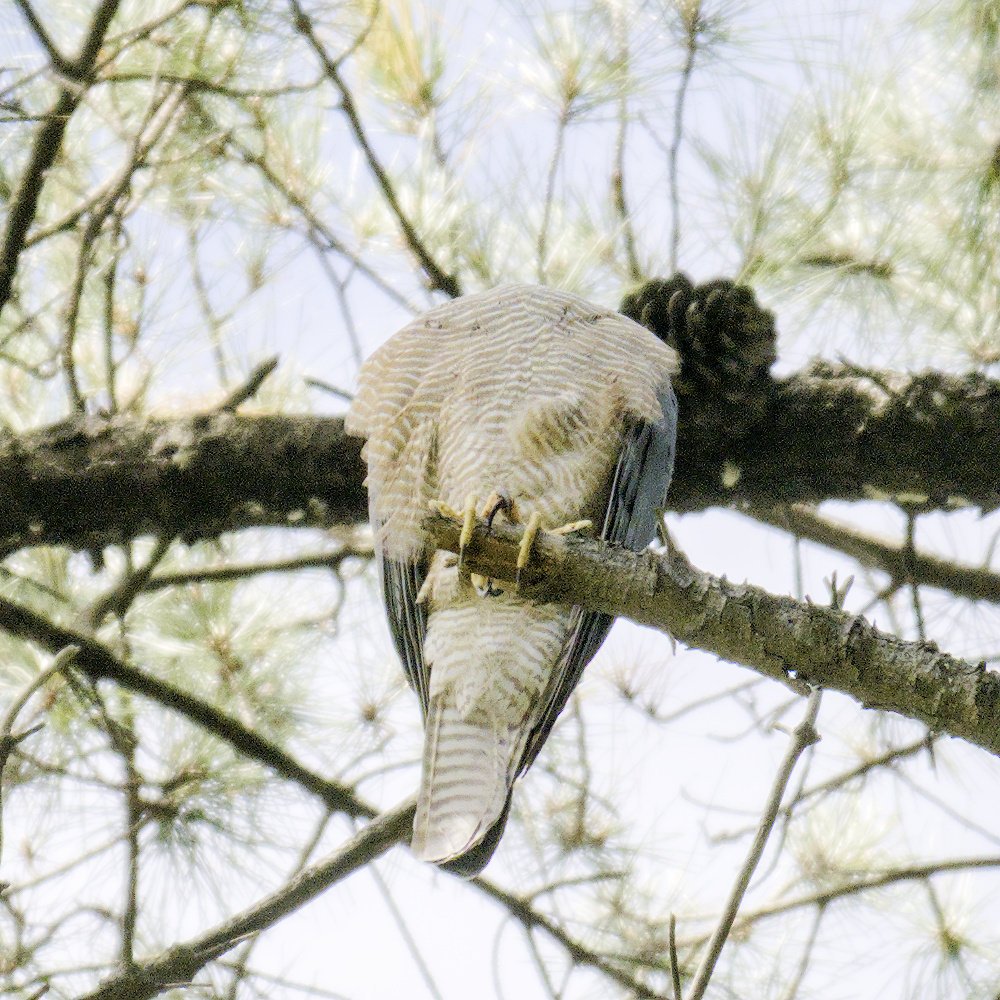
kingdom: Animalia
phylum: Chordata
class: Aves
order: Accipitriformes
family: Accipitridae
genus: Accipiter
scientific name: Accipiter cirrocephalus
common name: Collared sparrowhawk
